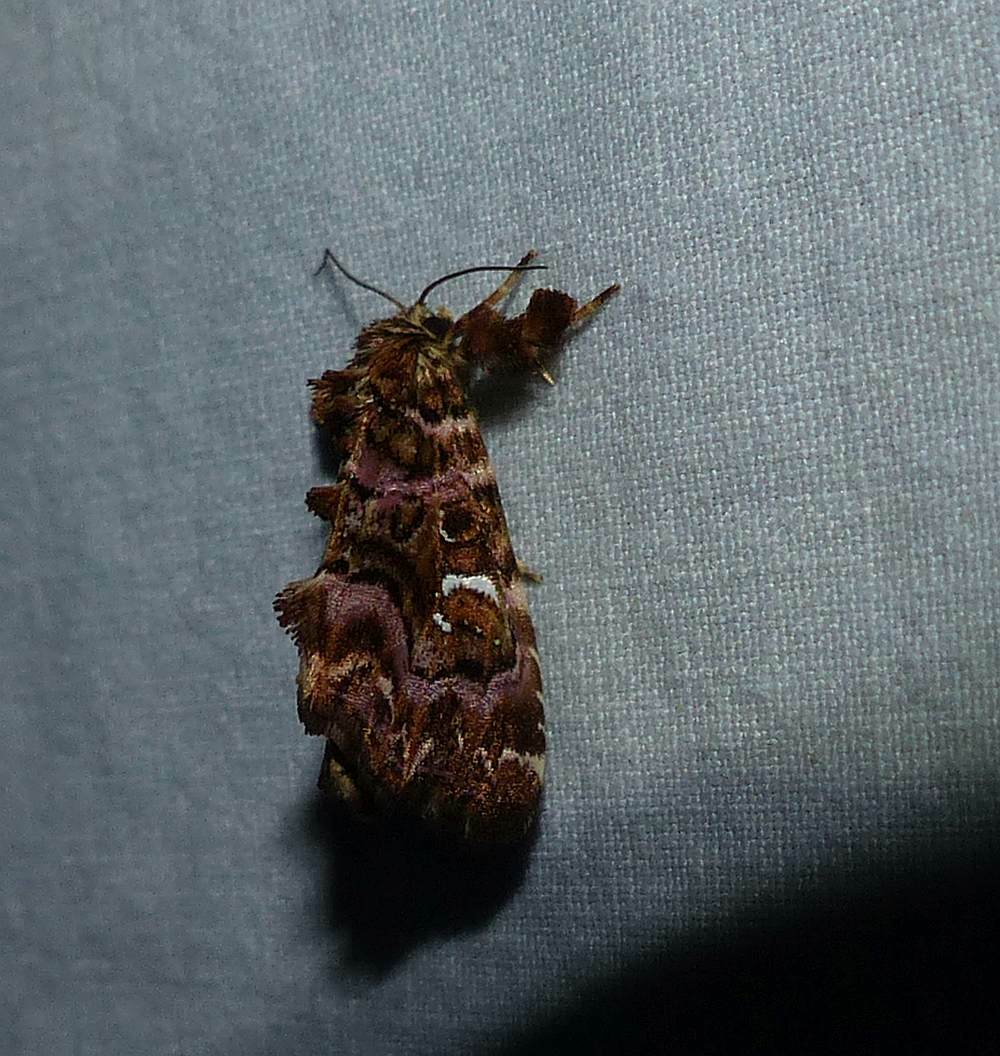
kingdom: Animalia
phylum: Arthropoda
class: Insecta
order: Lepidoptera
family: Noctuidae
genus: Callopistria
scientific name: Callopistria mollissima
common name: Pink-shaded fern moth
